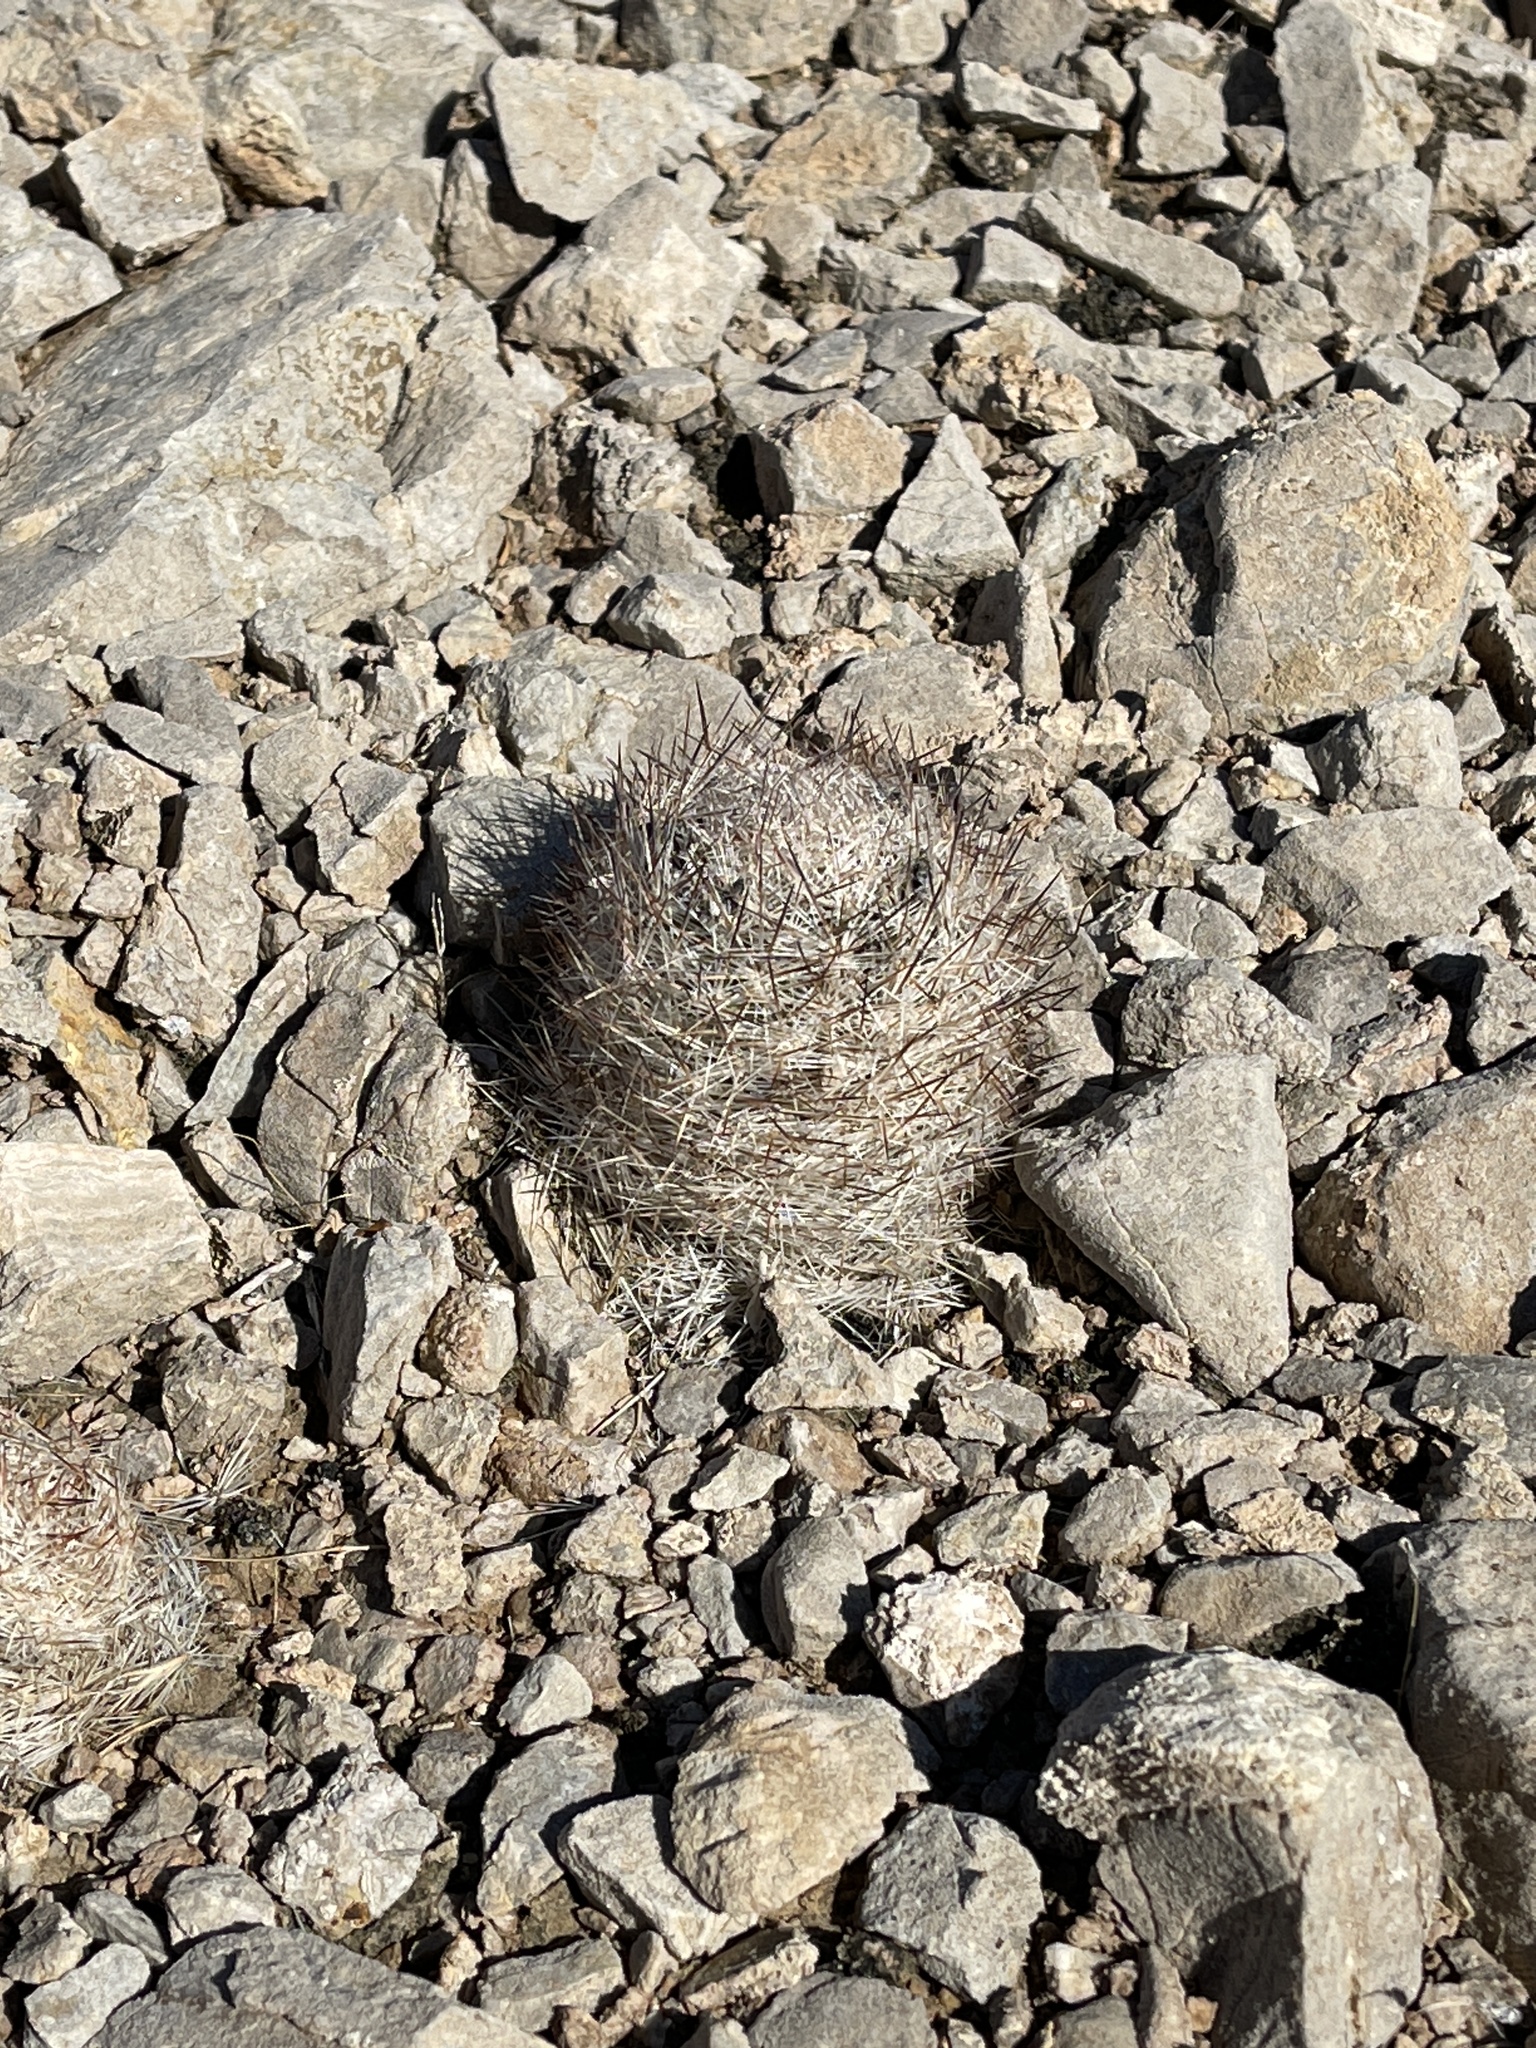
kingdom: Plantae
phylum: Tracheophyta
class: Magnoliopsida
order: Caryophyllales
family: Cactaceae
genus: Pelecyphora
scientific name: Pelecyphora dasyacantha
